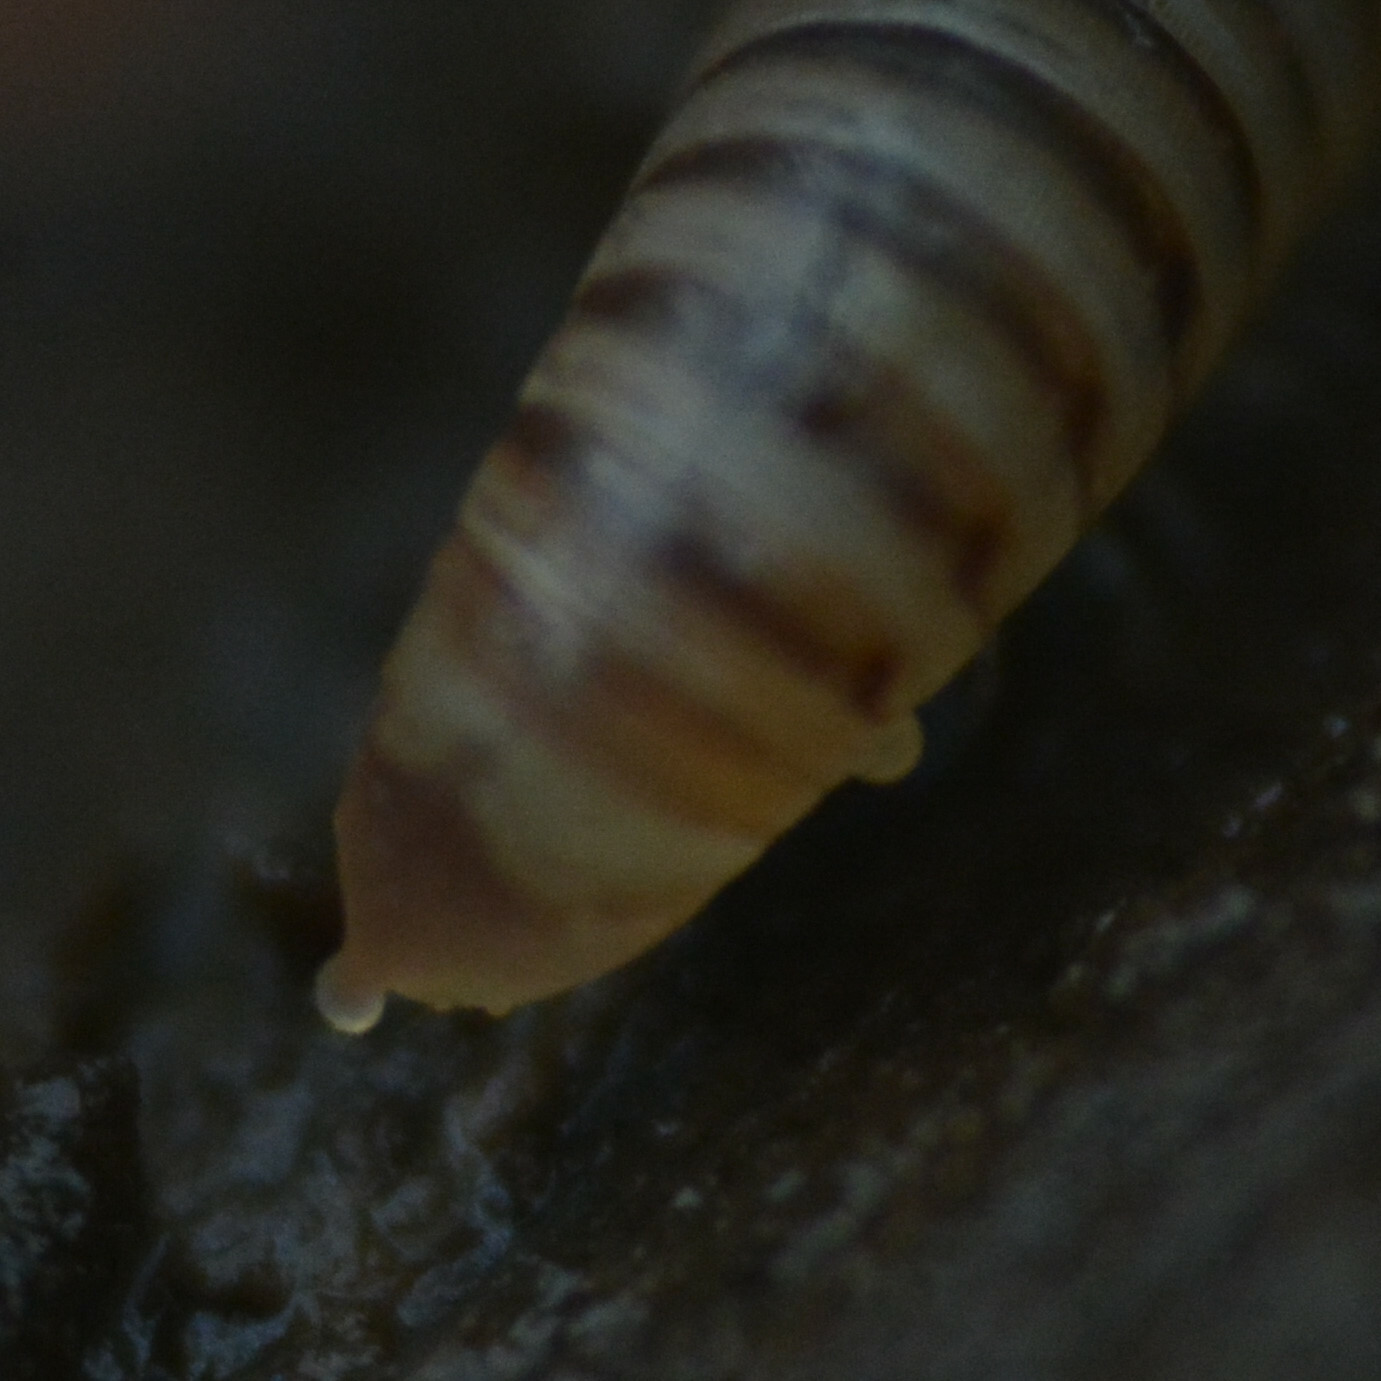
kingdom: Animalia
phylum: Arthropoda
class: Diplopoda
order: Julida
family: Julidae
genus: Cylindroiulus
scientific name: Cylindroiulus punctatus
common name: Blunt-tailed millipede
